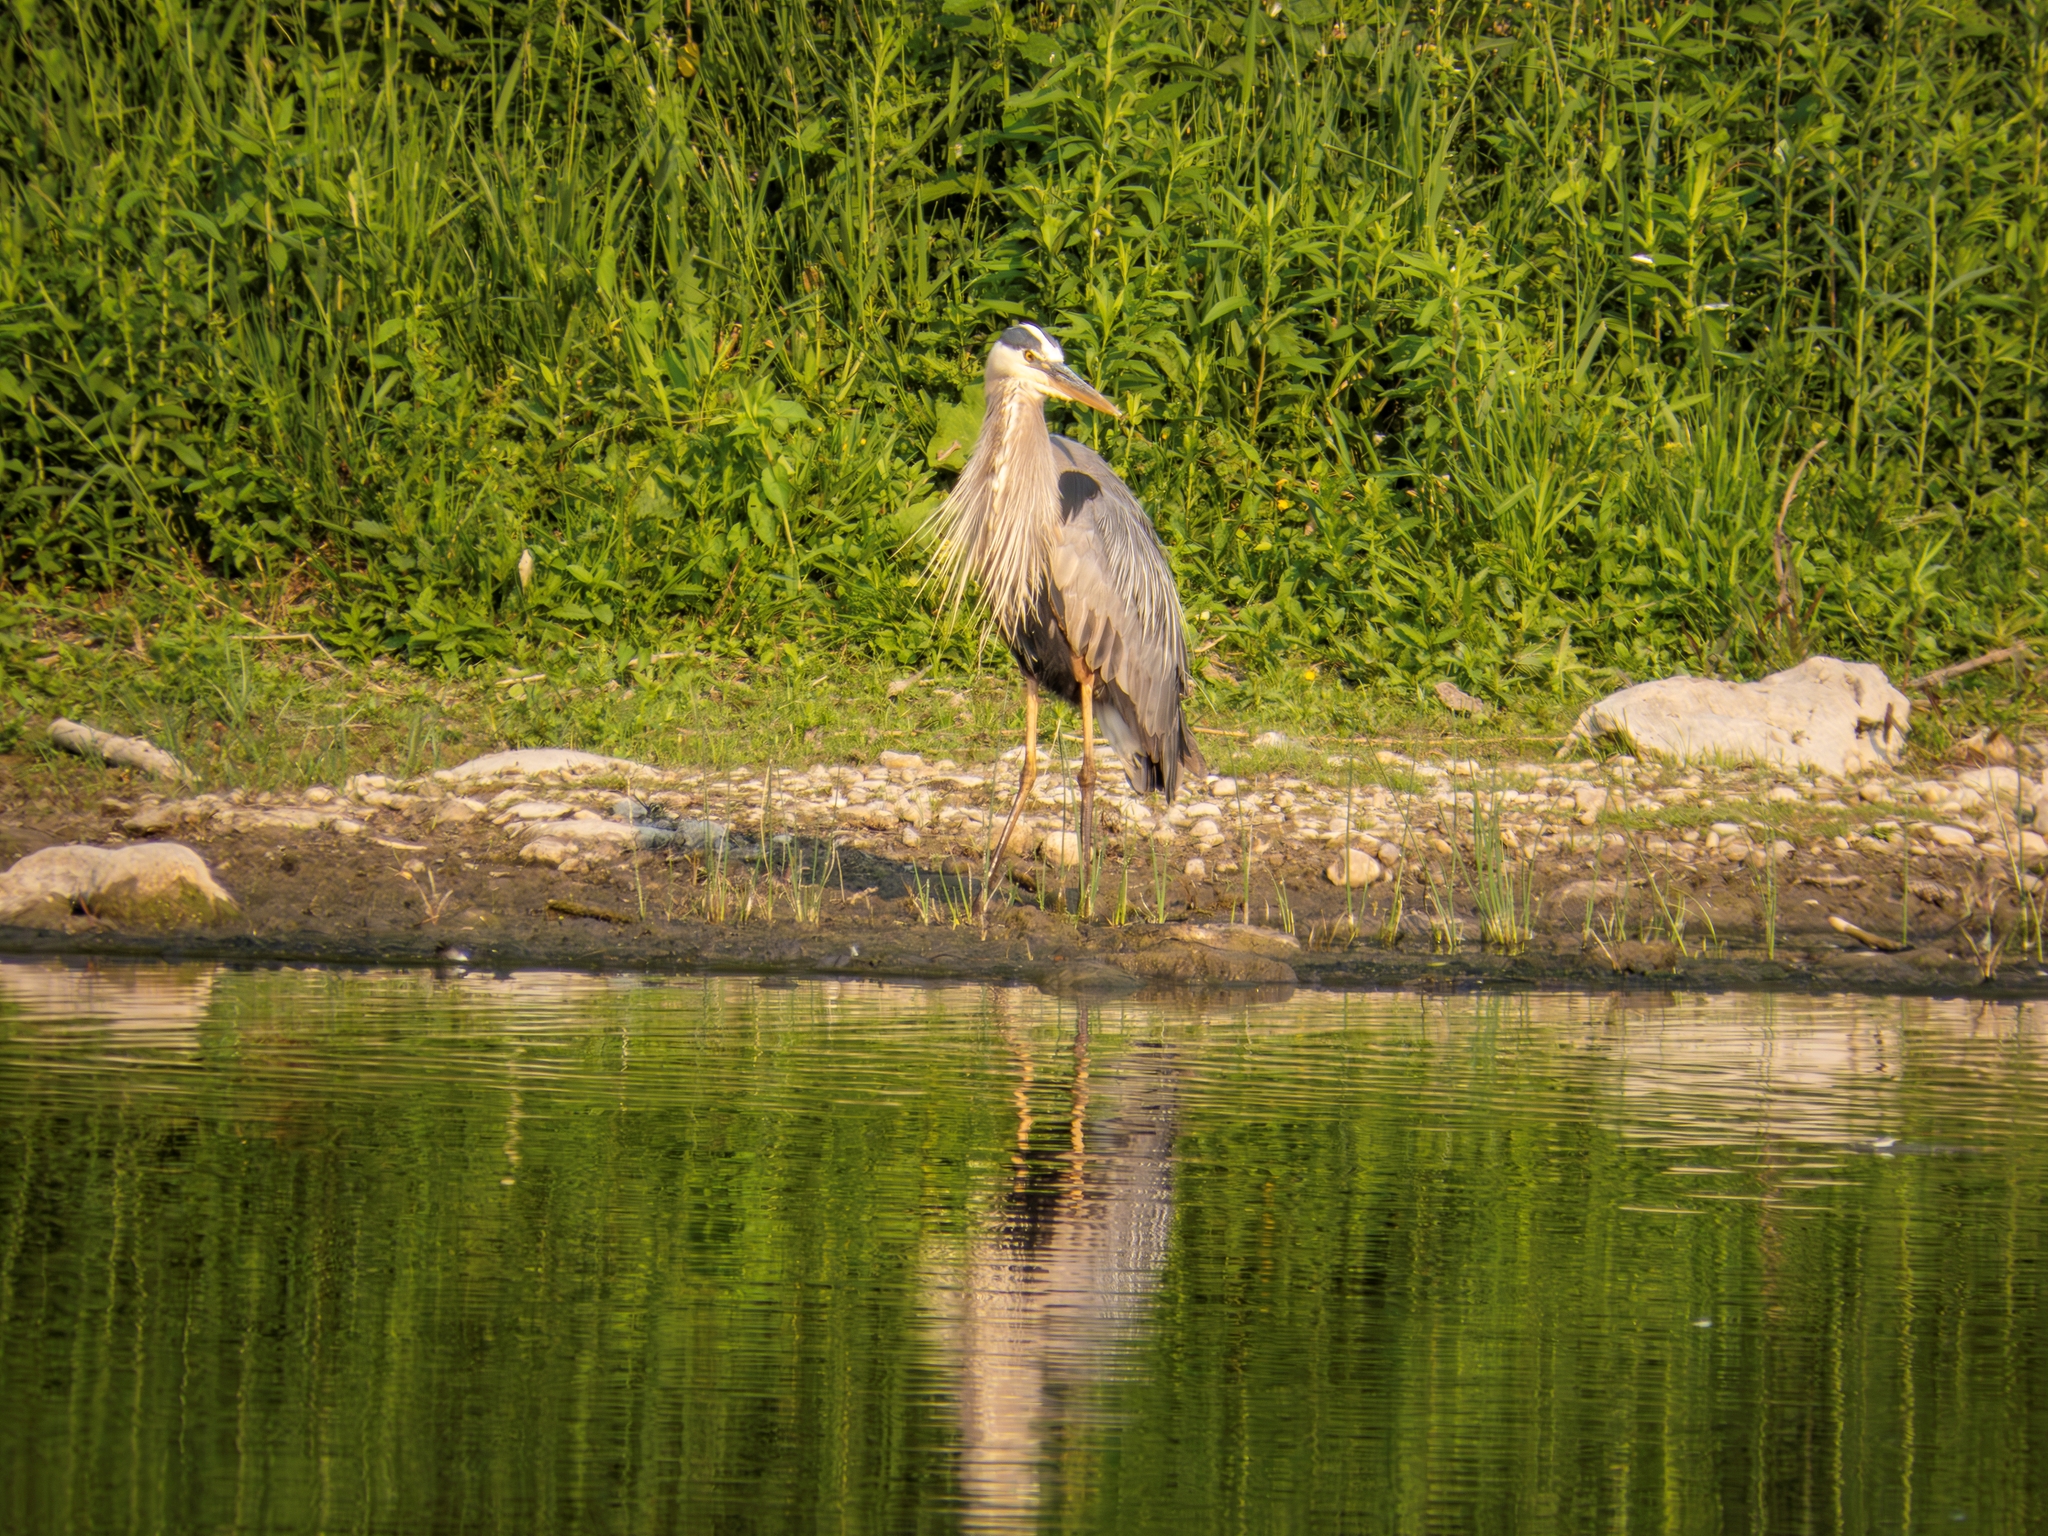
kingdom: Animalia
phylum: Chordata
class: Aves
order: Pelecaniformes
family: Ardeidae
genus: Ardea
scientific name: Ardea herodias
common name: Great blue heron
